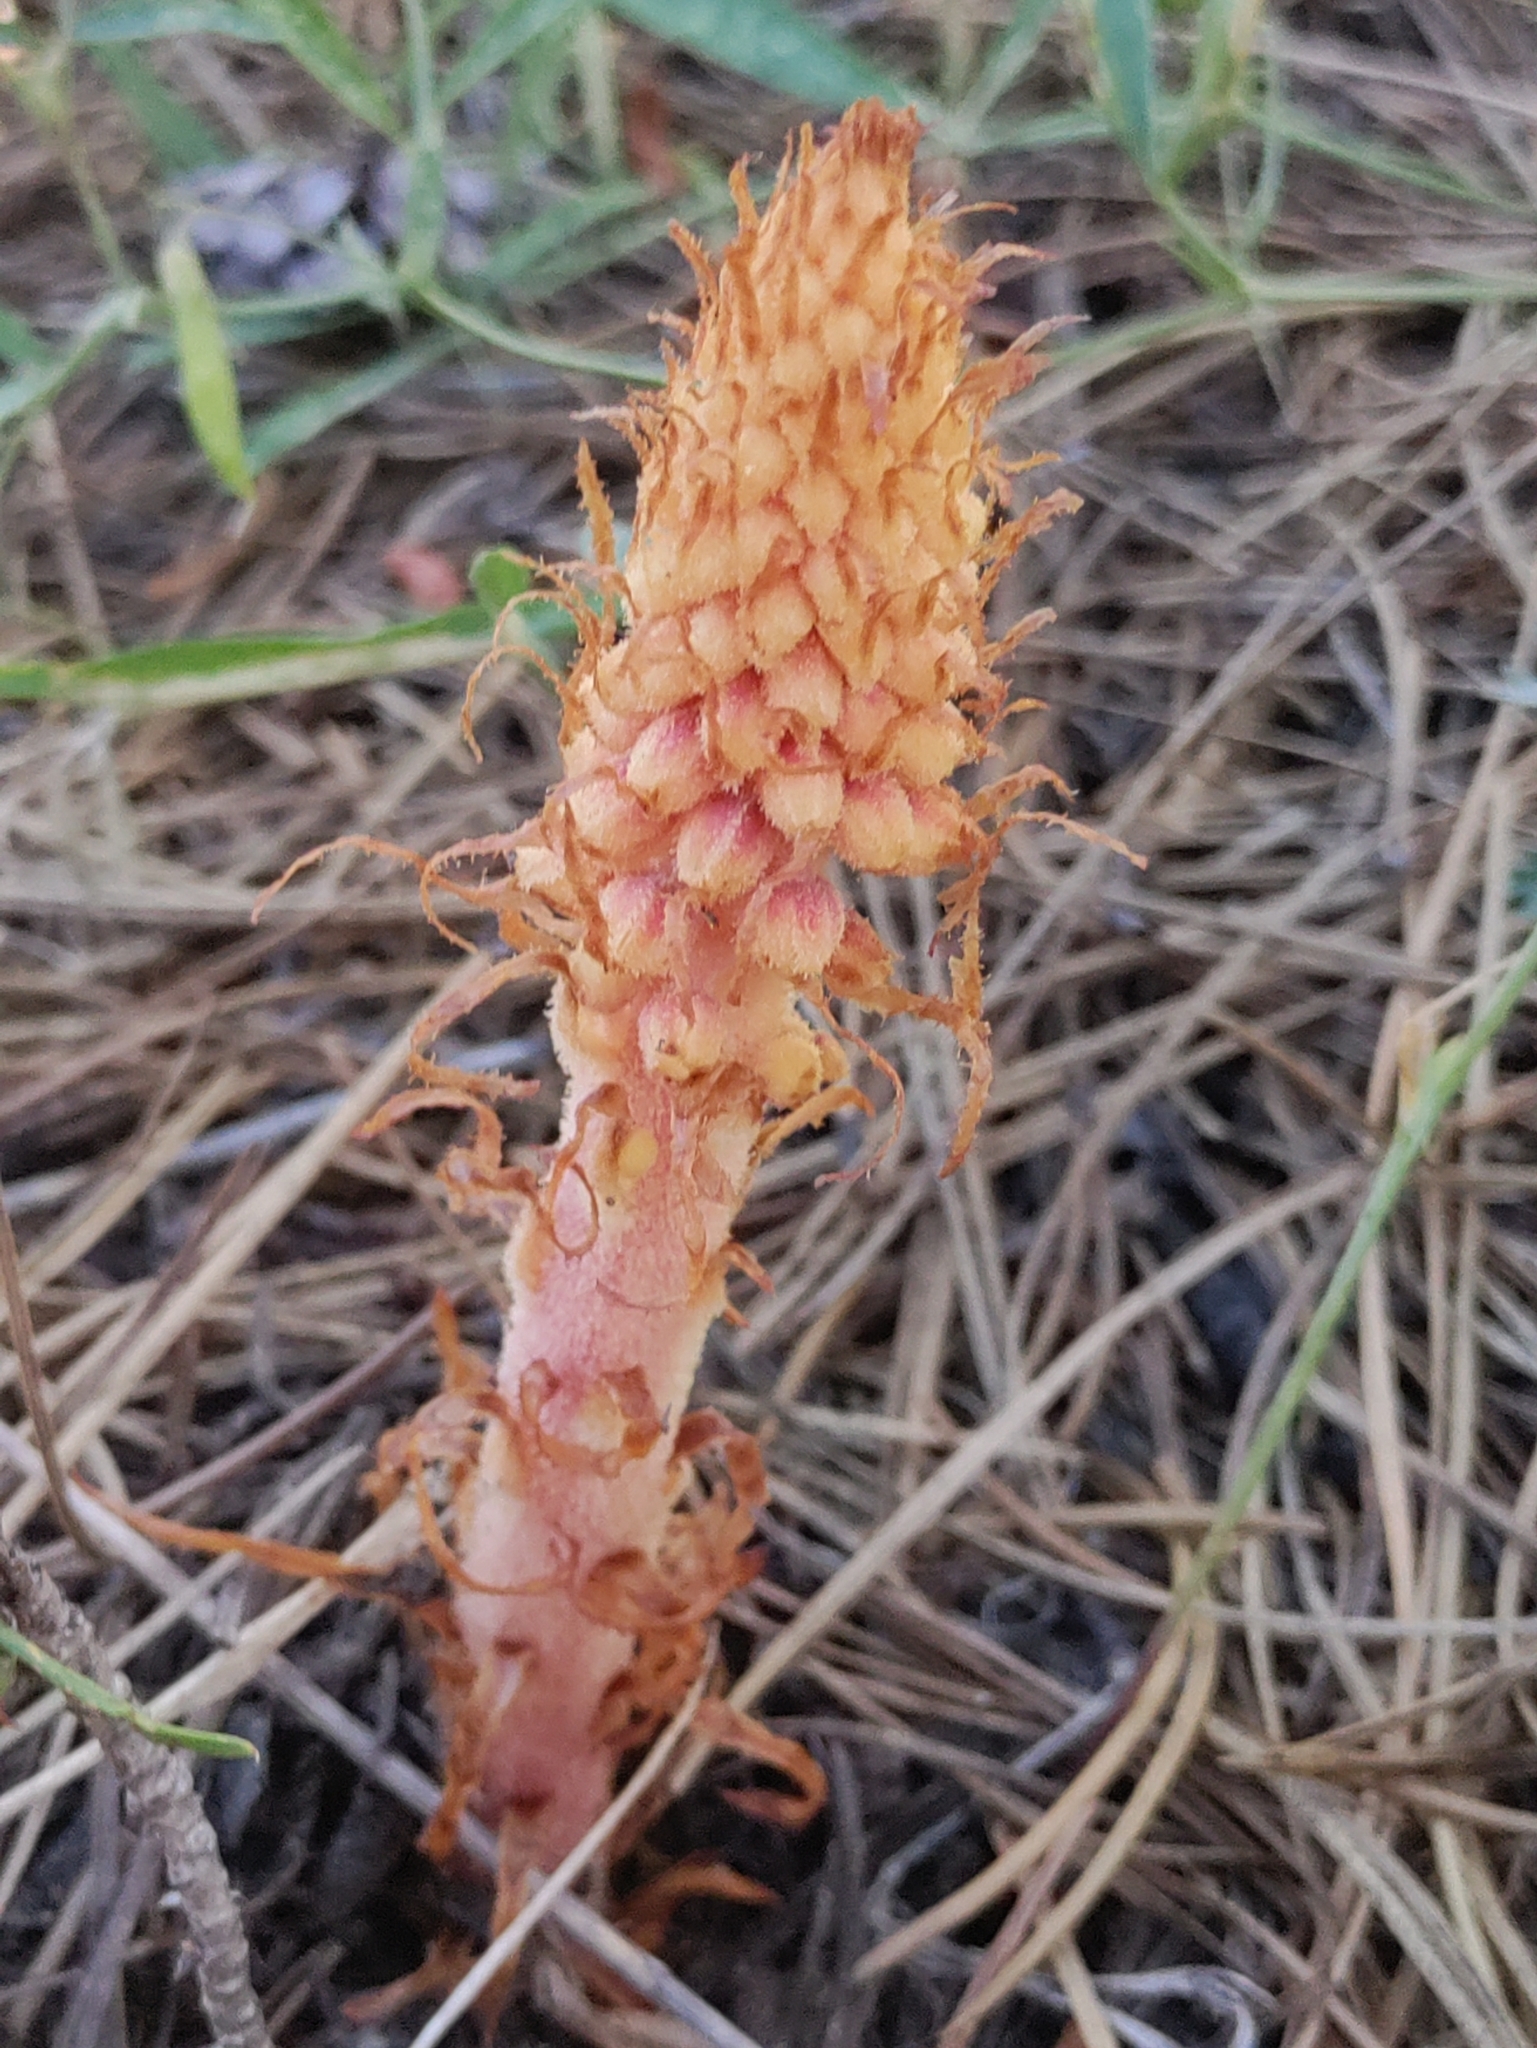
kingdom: Plantae
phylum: Tracheophyta
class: Magnoliopsida
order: Ericales
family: Ericaceae
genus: Pterospora
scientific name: Pterospora andromedea
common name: Giant bird's-nest
